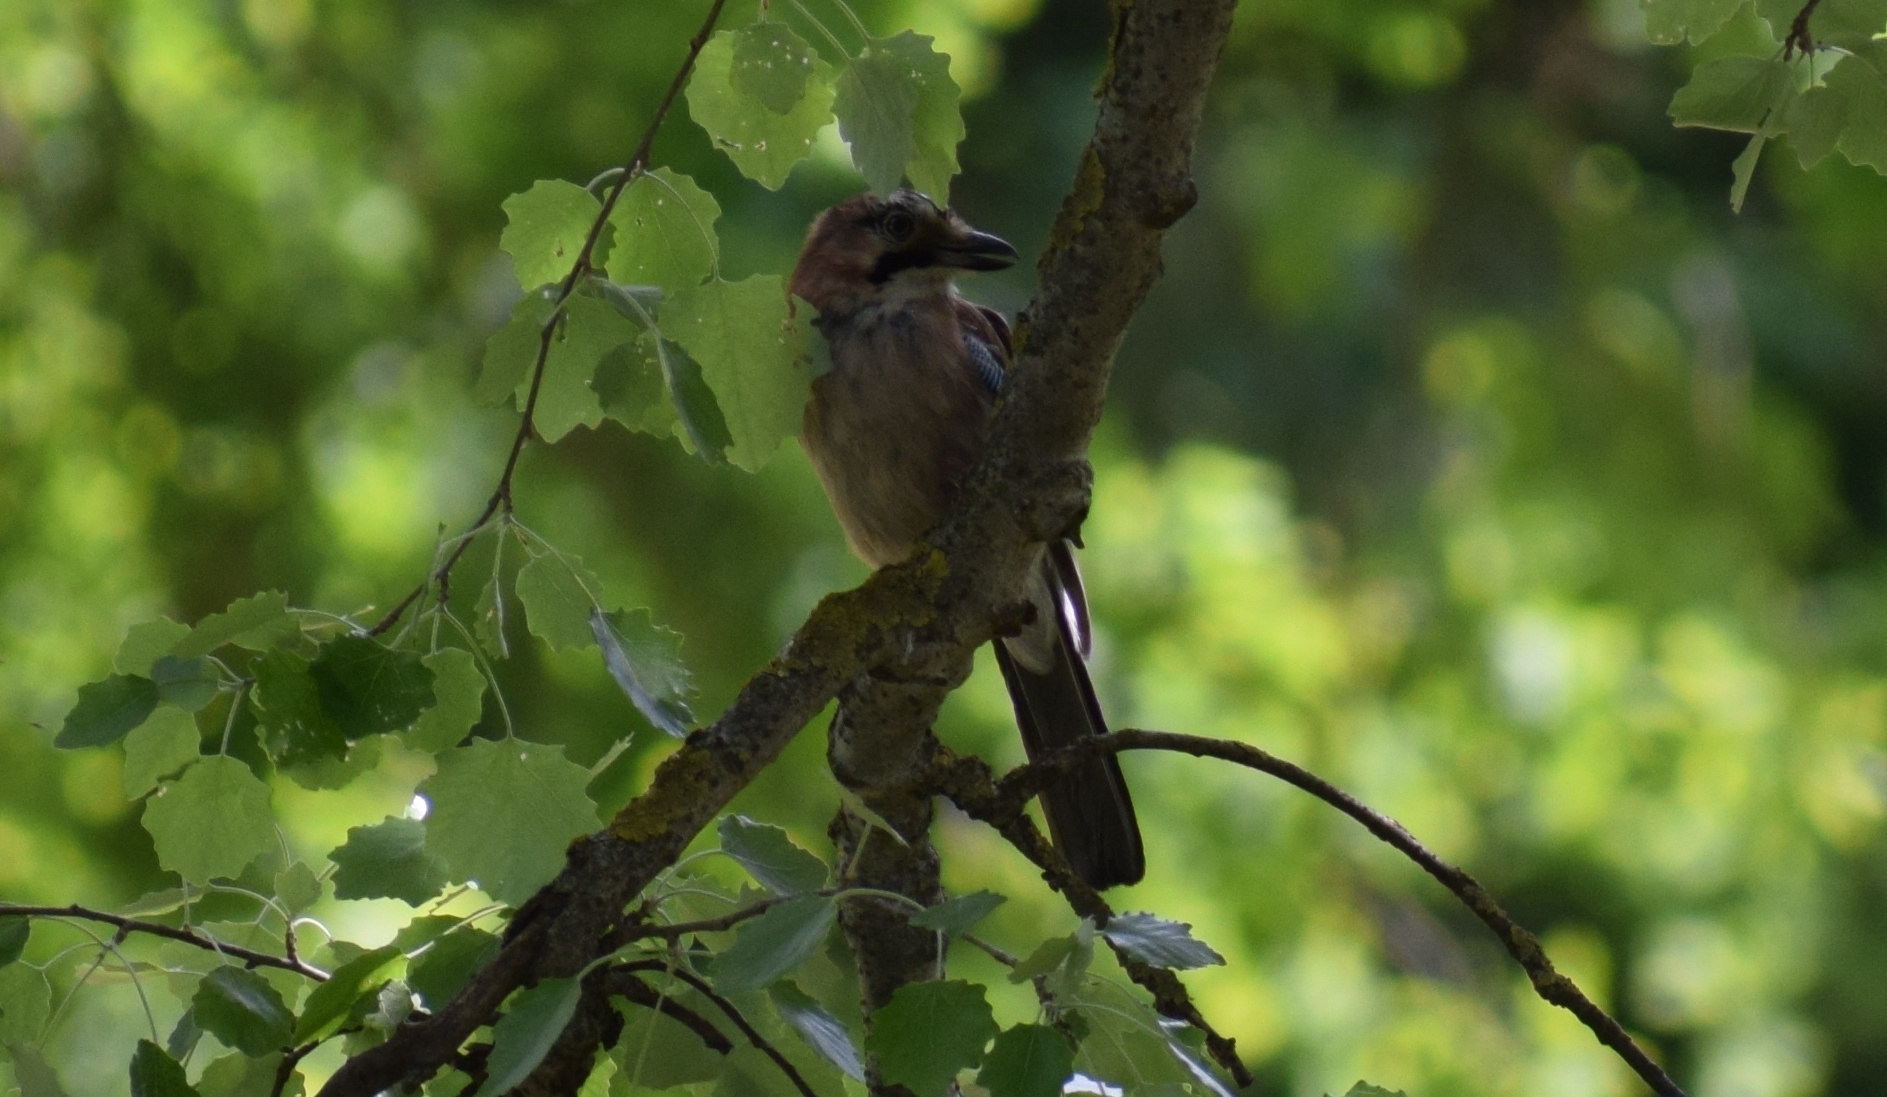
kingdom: Animalia
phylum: Chordata
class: Aves
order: Passeriformes
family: Corvidae
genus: Garrulus
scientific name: Garrulus glandarius
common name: Eurasian jay
